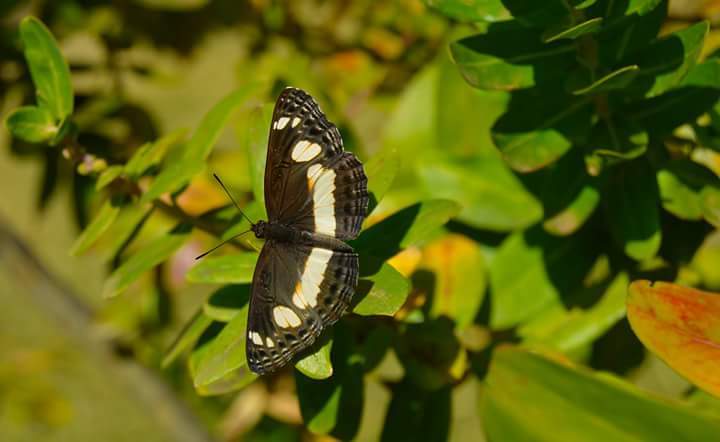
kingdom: Animalia
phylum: Arthropoda
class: Insecta
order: Lepidoptera
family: Nymphalidae
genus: Neptis
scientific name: Neptis saclava
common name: Small spotted sailor
